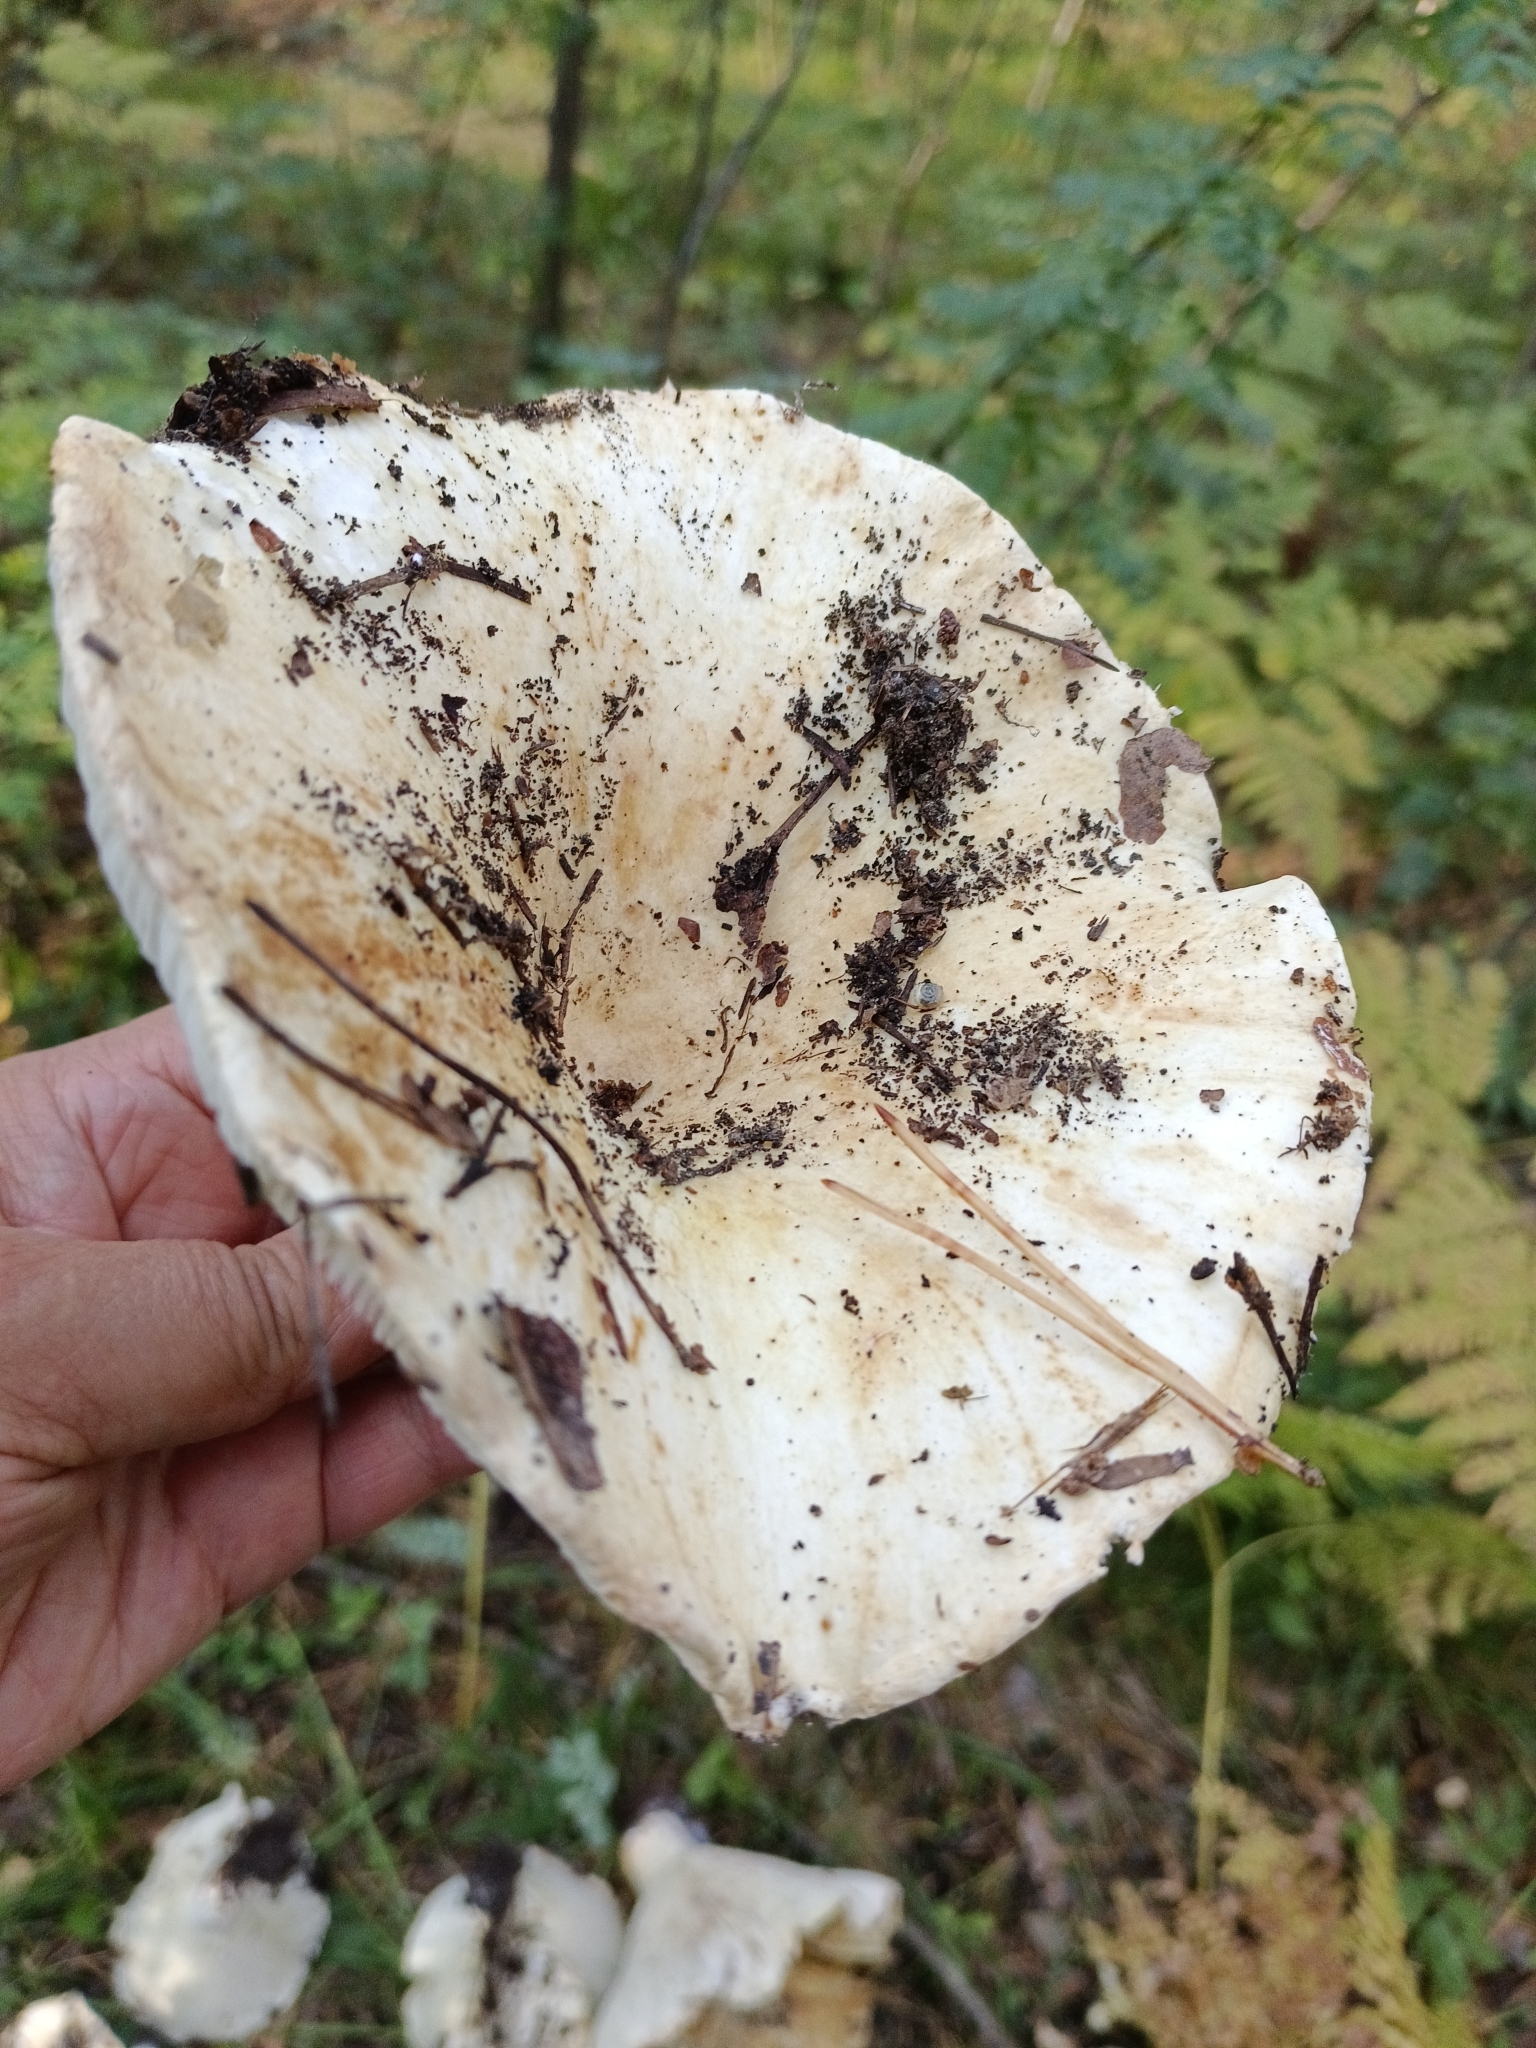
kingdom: Fungi
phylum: Basidiomycota
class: Agaricomycetes
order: Russulales
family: Russulaceae
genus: Russula
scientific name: Russula delica
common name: Milk white brittlegill
